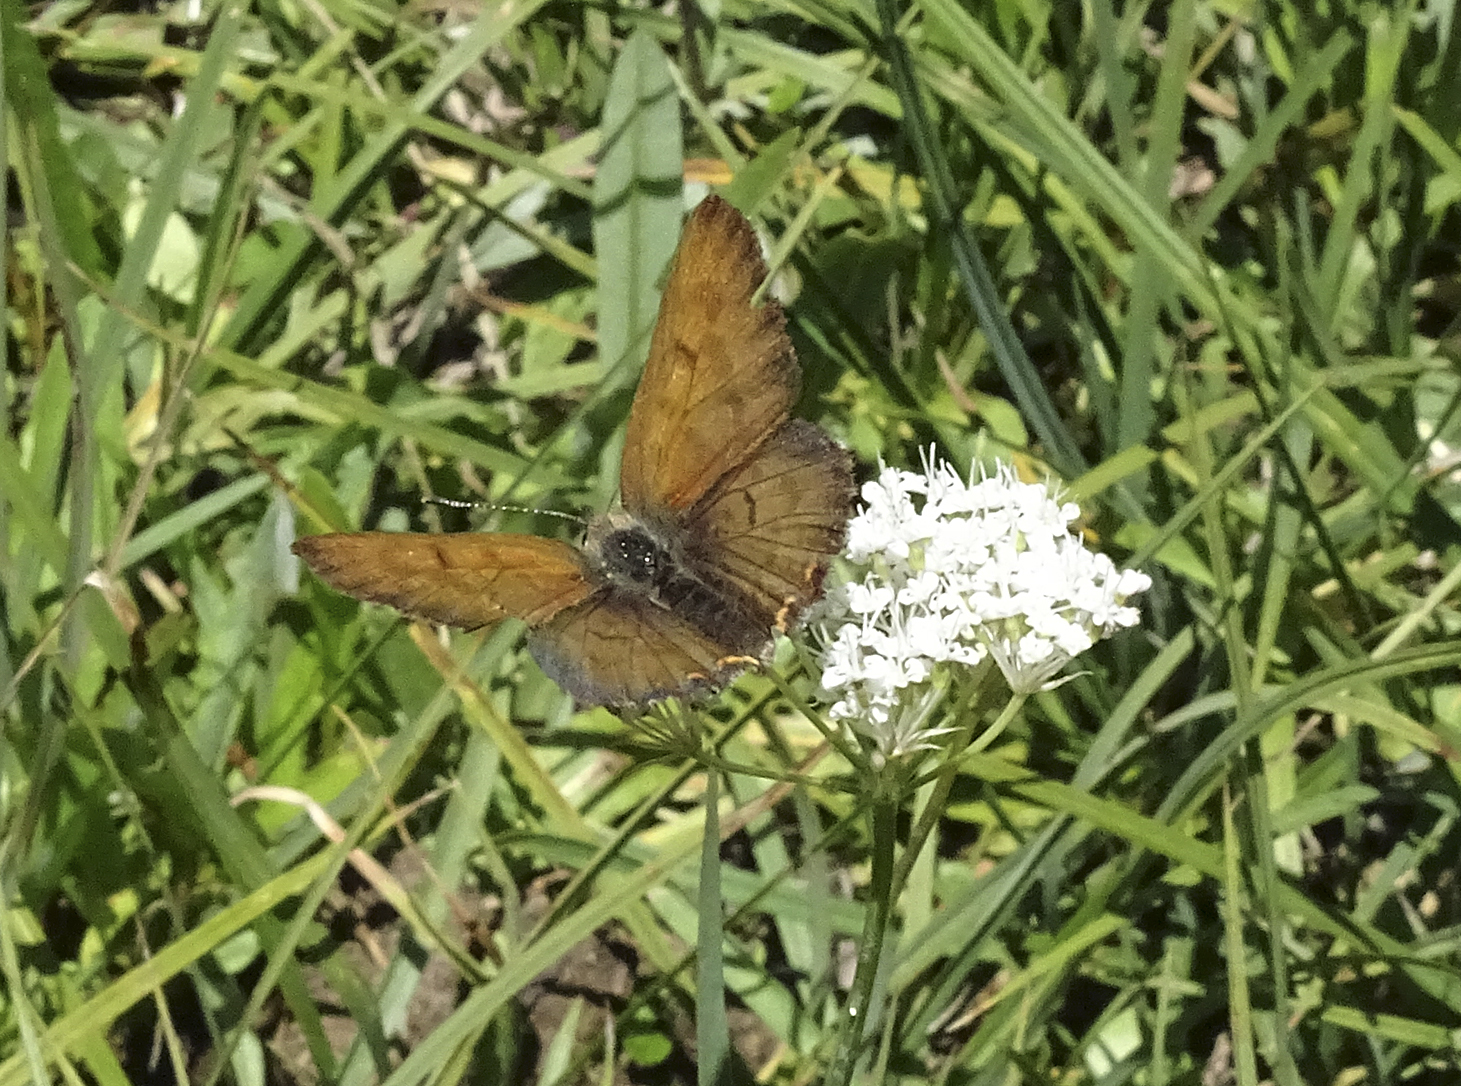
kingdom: Animalia
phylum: Arthropoda
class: Insecta
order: Lepidoptera
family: Lycaenidae
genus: Tharsalea
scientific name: Tharsalea mariposa
